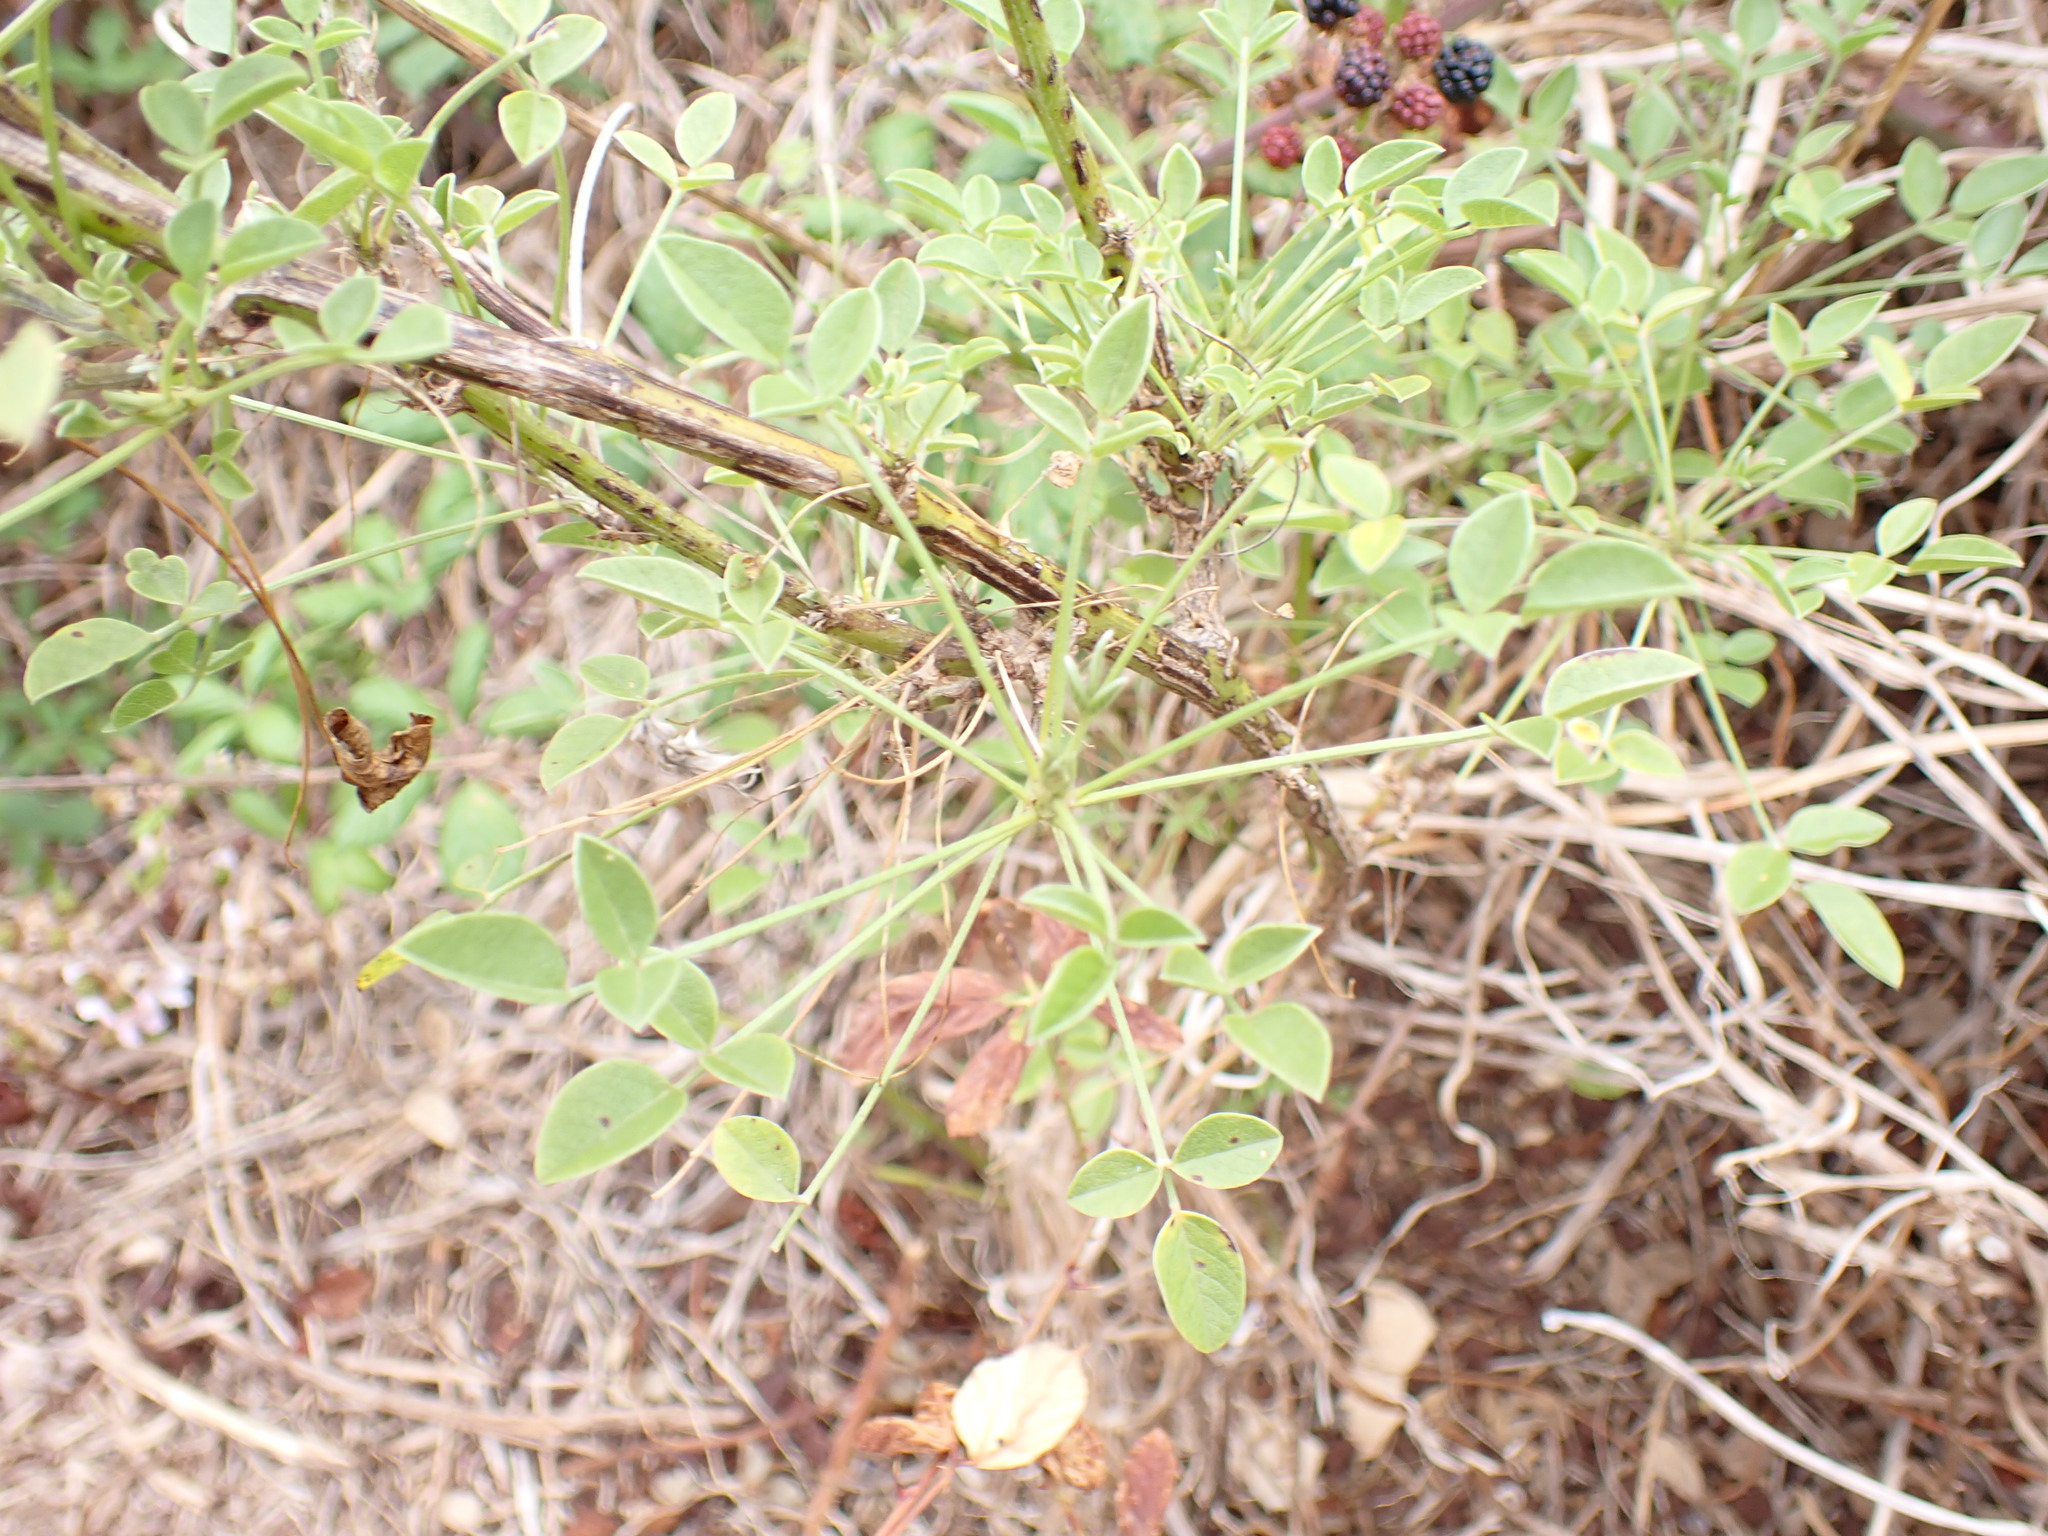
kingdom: Plantae
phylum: Tracheophyta
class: Magnoliopsida
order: Fabales
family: Fabaceae
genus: Bituminaria
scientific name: Bituminaria bituminosa
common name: Arabian pea
